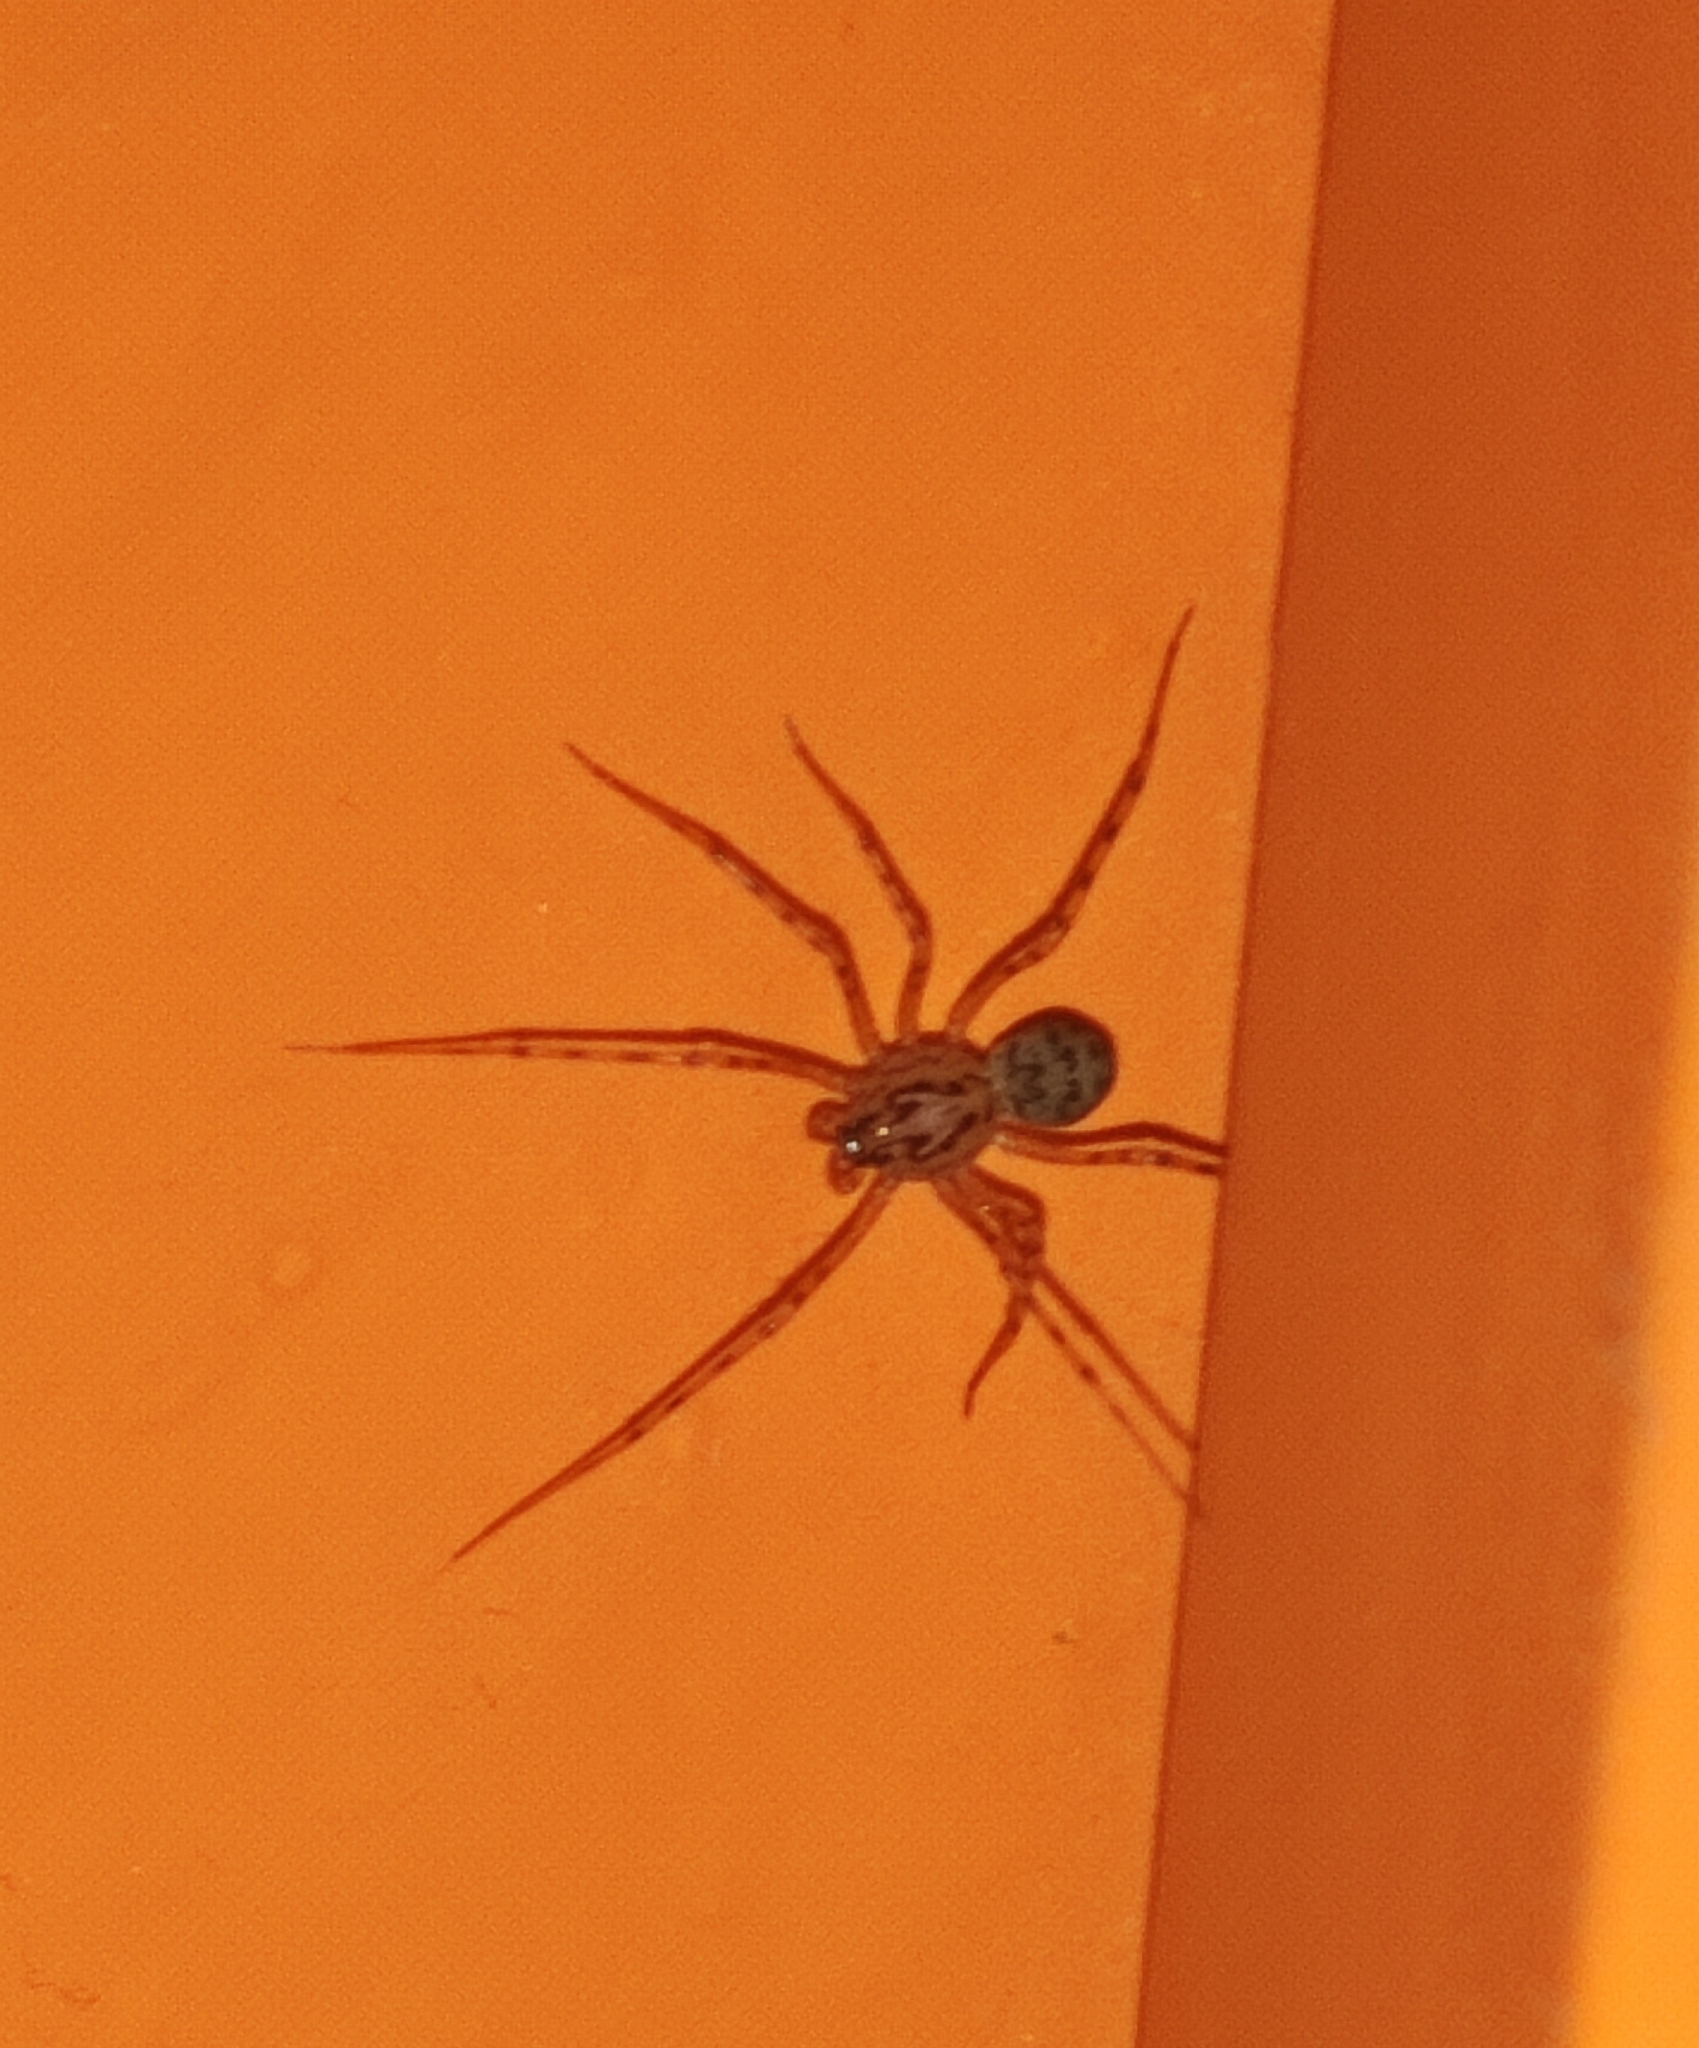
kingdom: Animalia
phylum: Arthropoda
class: Arachnida
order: Araneae
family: Scytodidae
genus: Scytodes
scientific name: Scytodes thoracica
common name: Spitting spider
